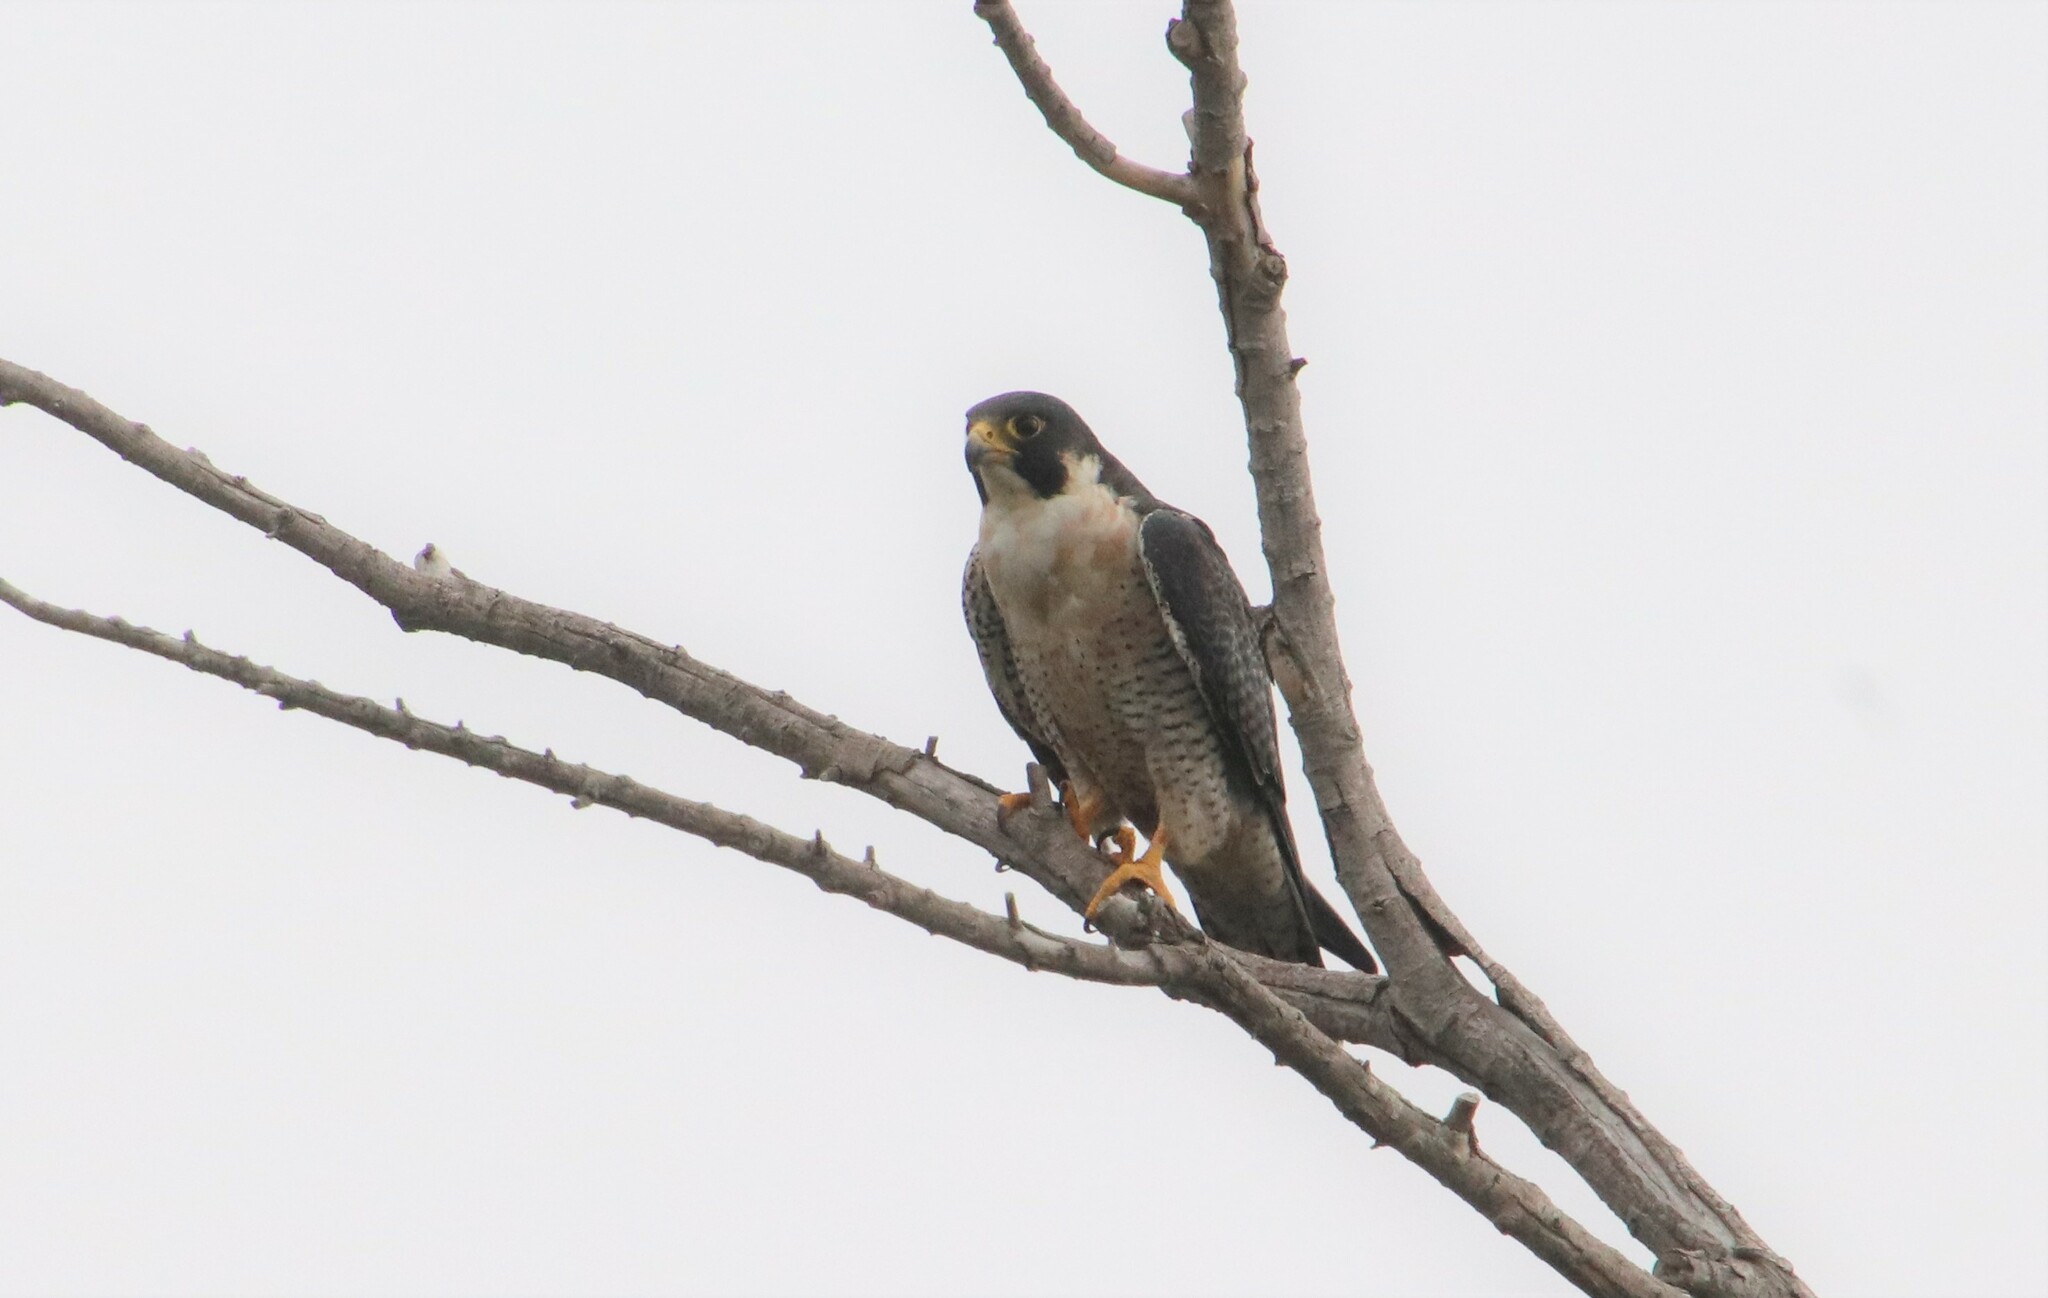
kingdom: Animalia
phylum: Chordata
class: Aves
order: Falconiformes
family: Falconidae
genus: Falco
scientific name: Falco peregrinus
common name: Peregrine falcon
